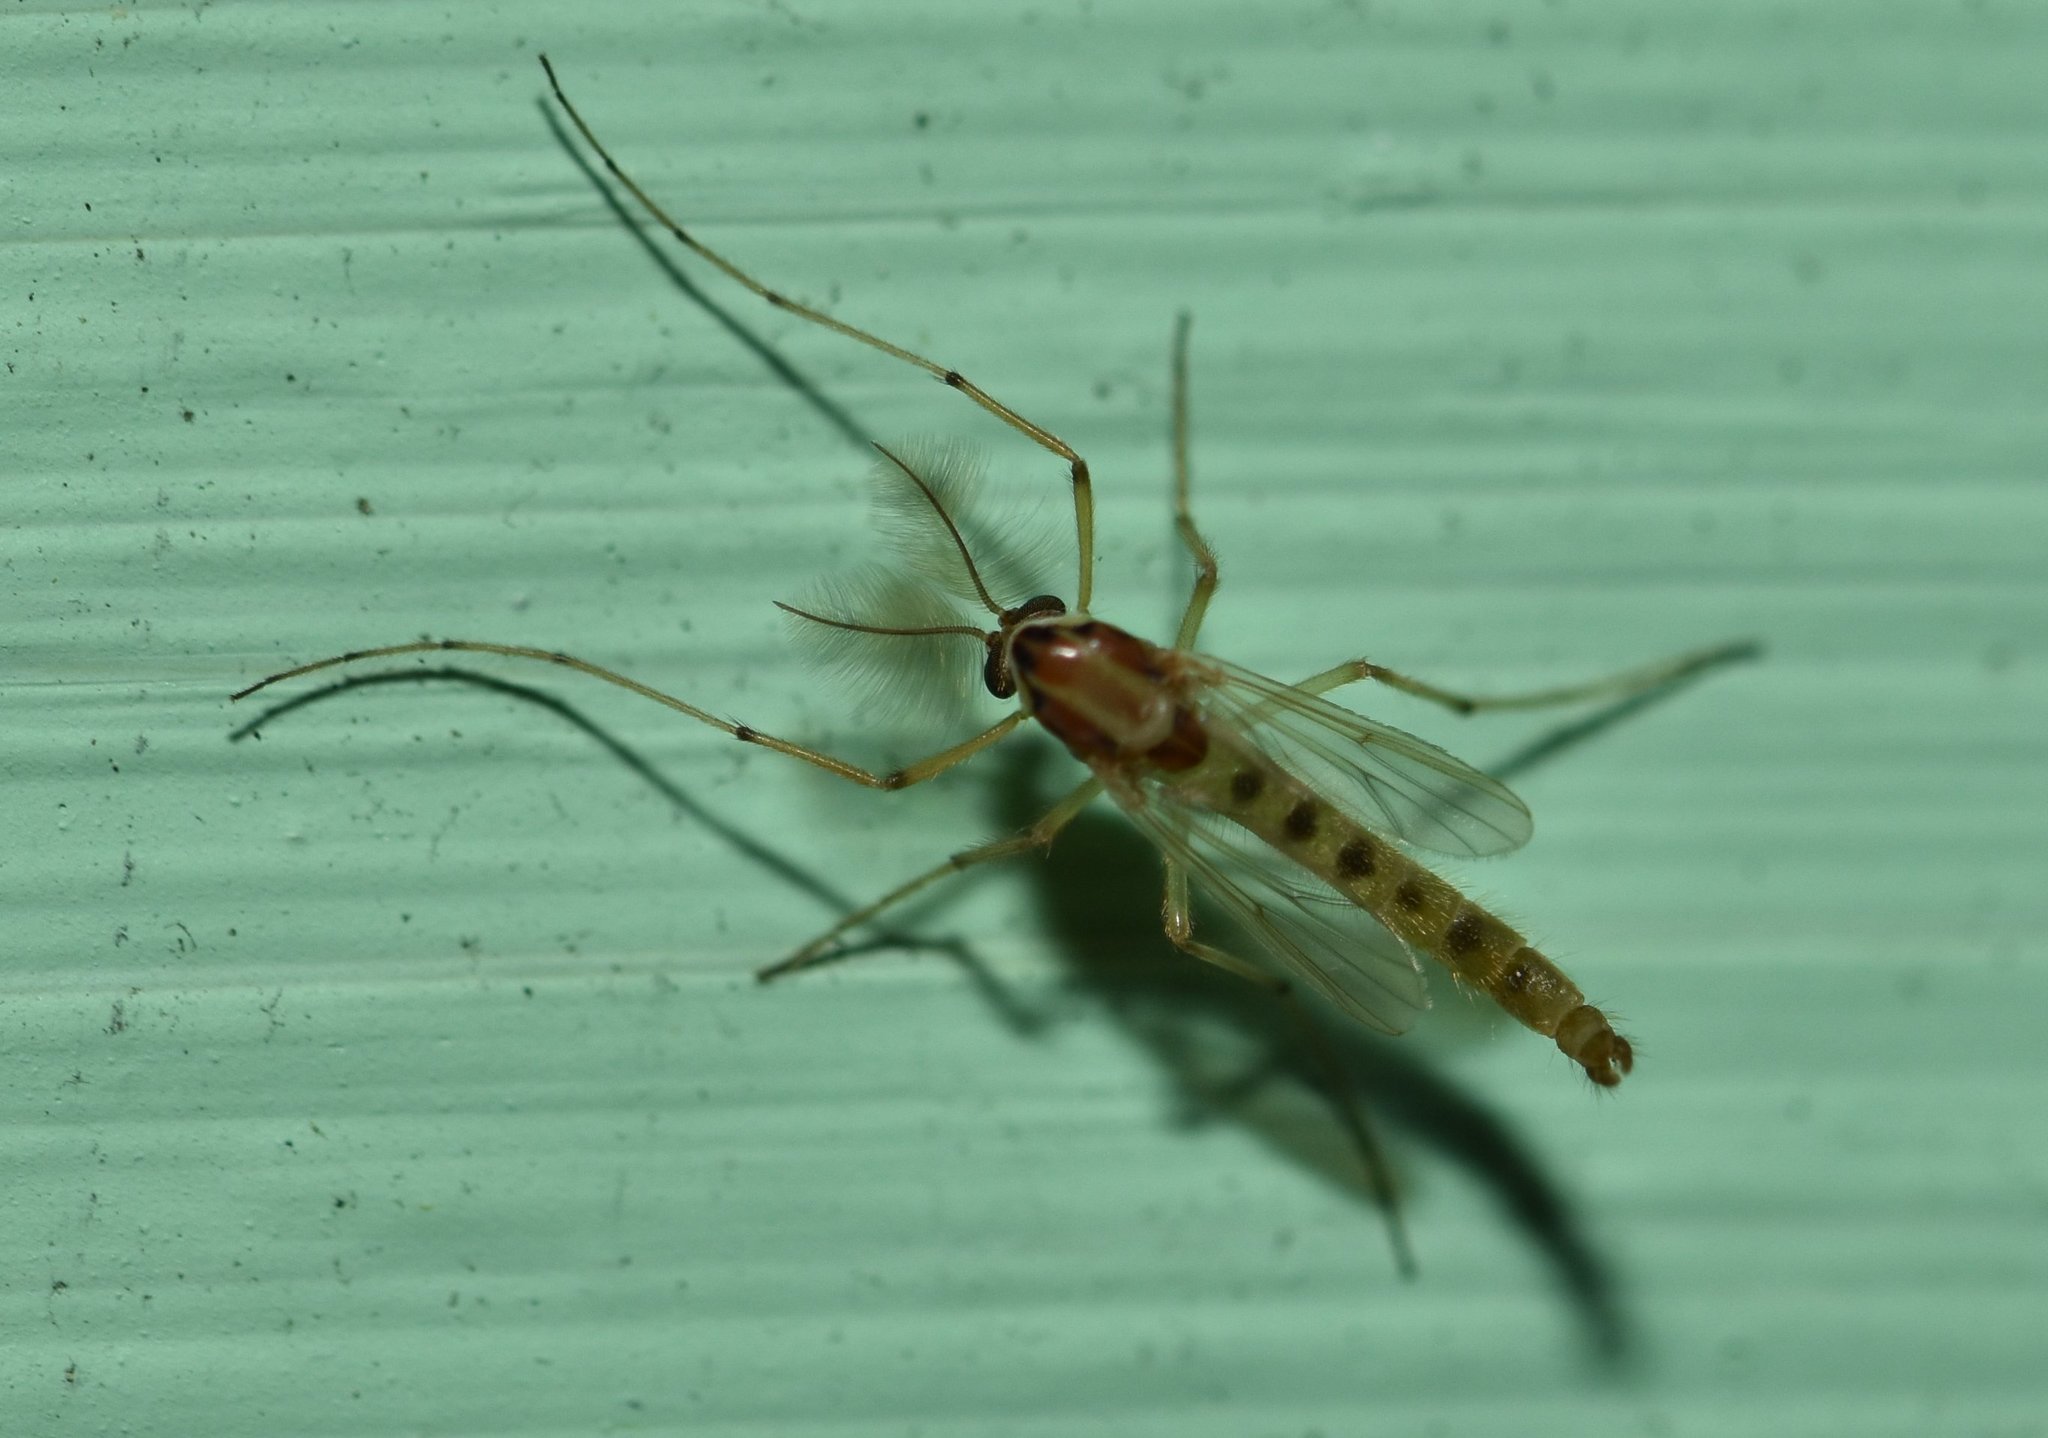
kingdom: Animalia
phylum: Arthropoda
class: Insecta
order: Diptera
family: Chironomidae
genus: Goeldichironomus
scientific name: Goeldichironomus carus
